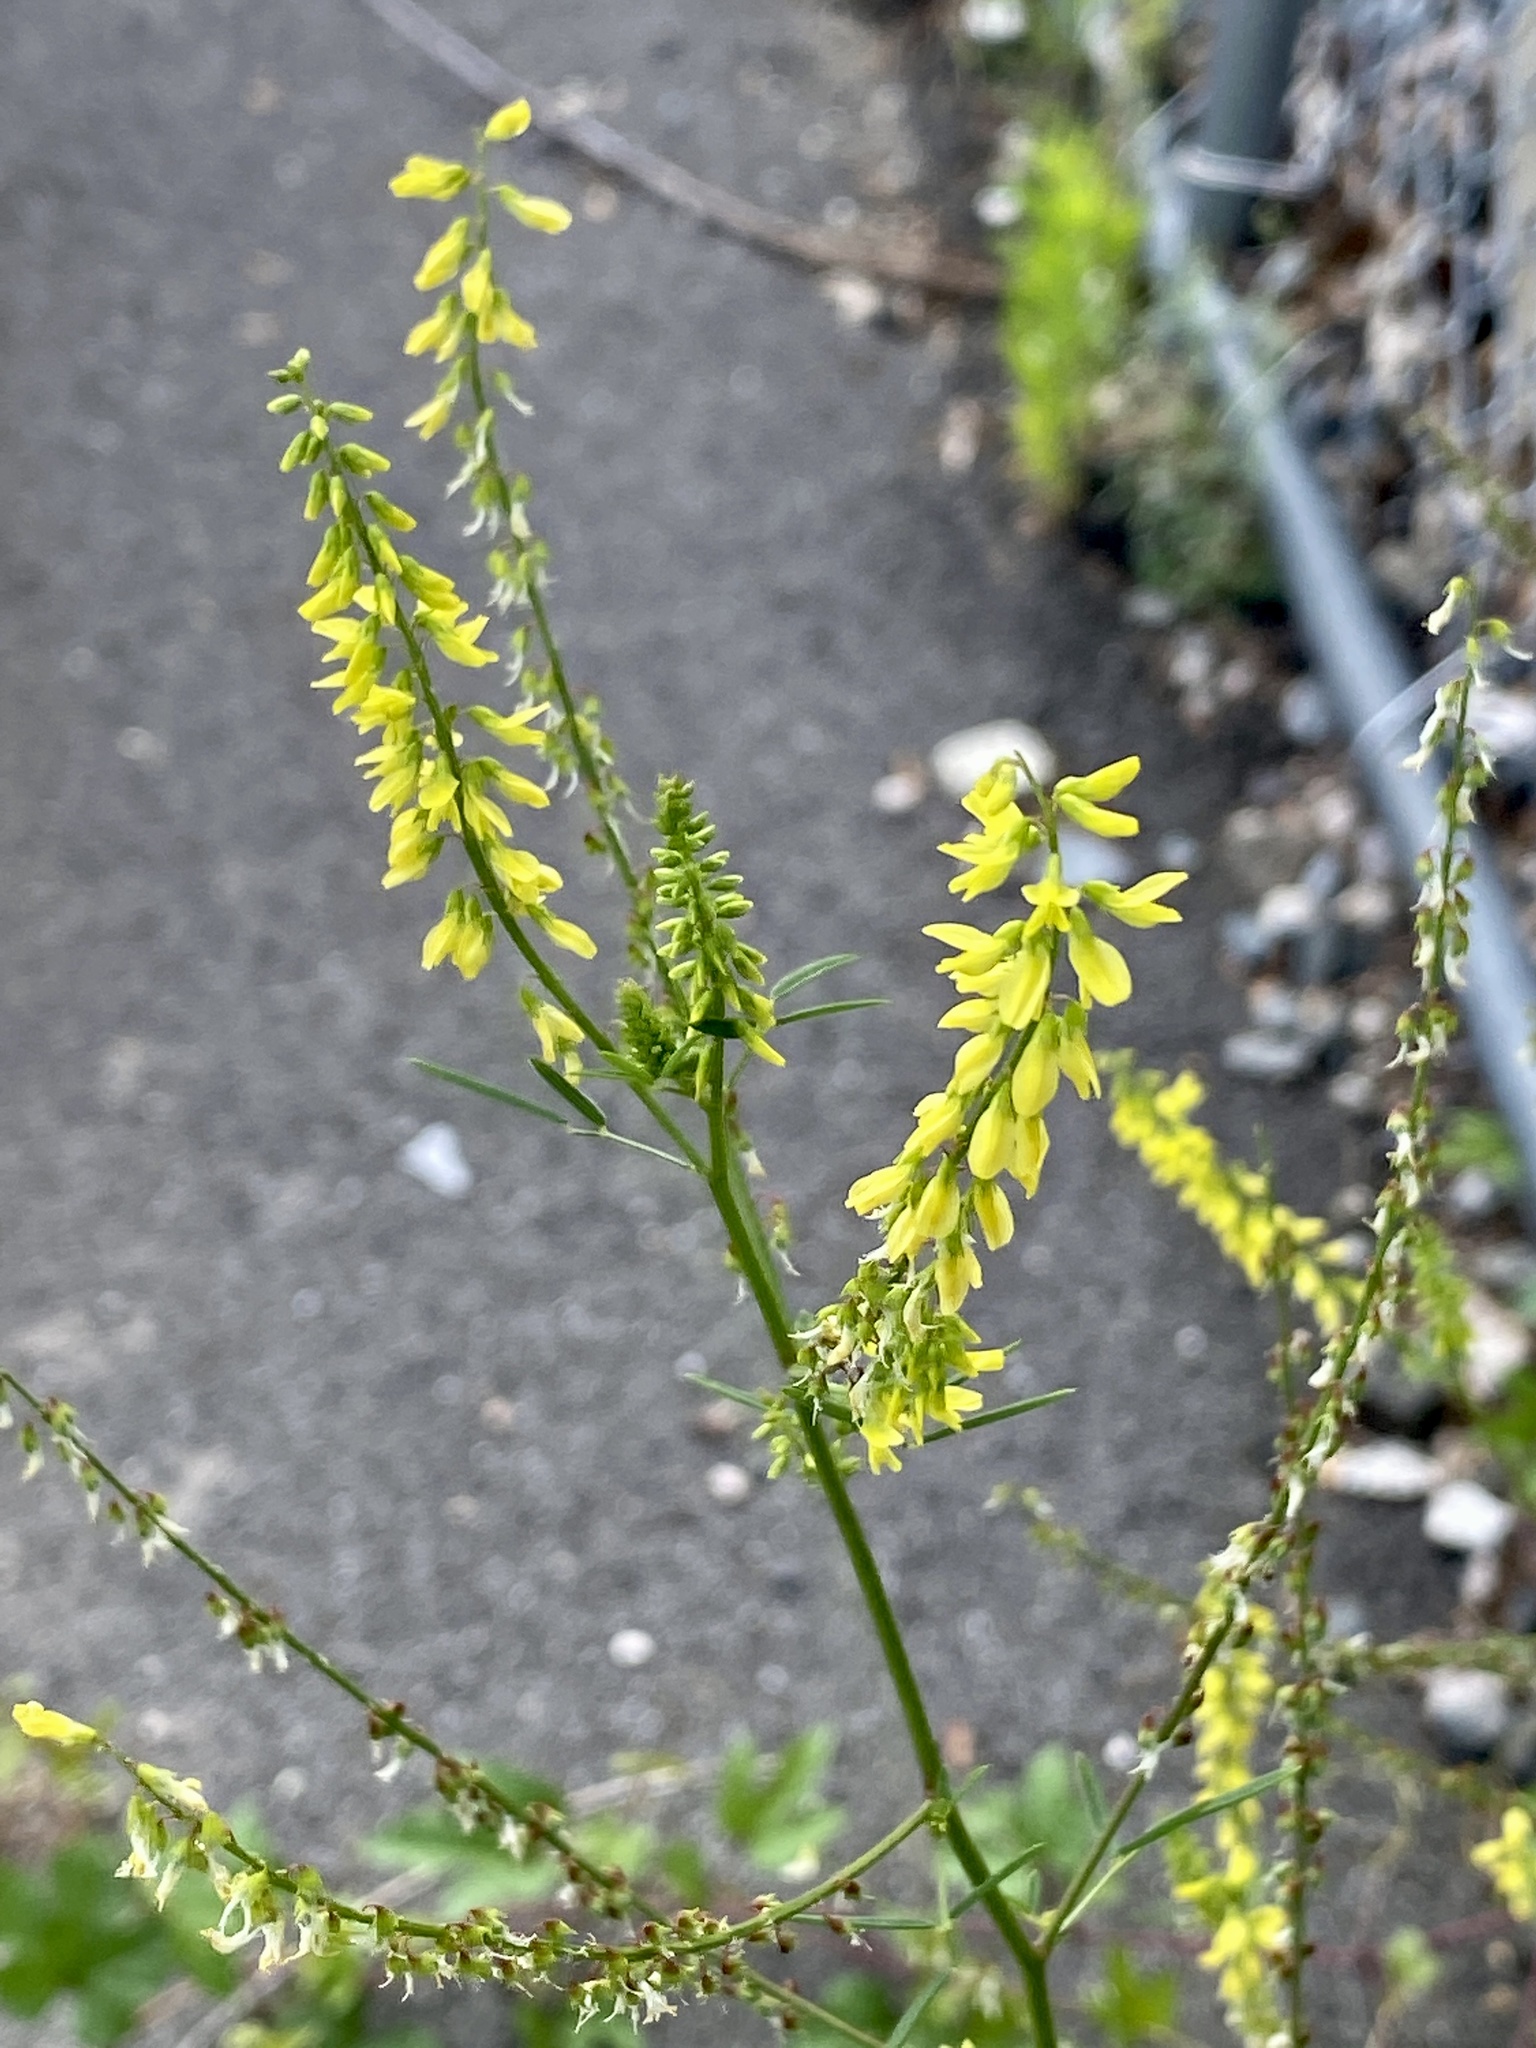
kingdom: Plantae
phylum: Tracheophyta
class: Magnoliopsida
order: Fabales
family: Fabaceae
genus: Melilotus
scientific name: Melilotus officinalis
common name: Sweetclover
